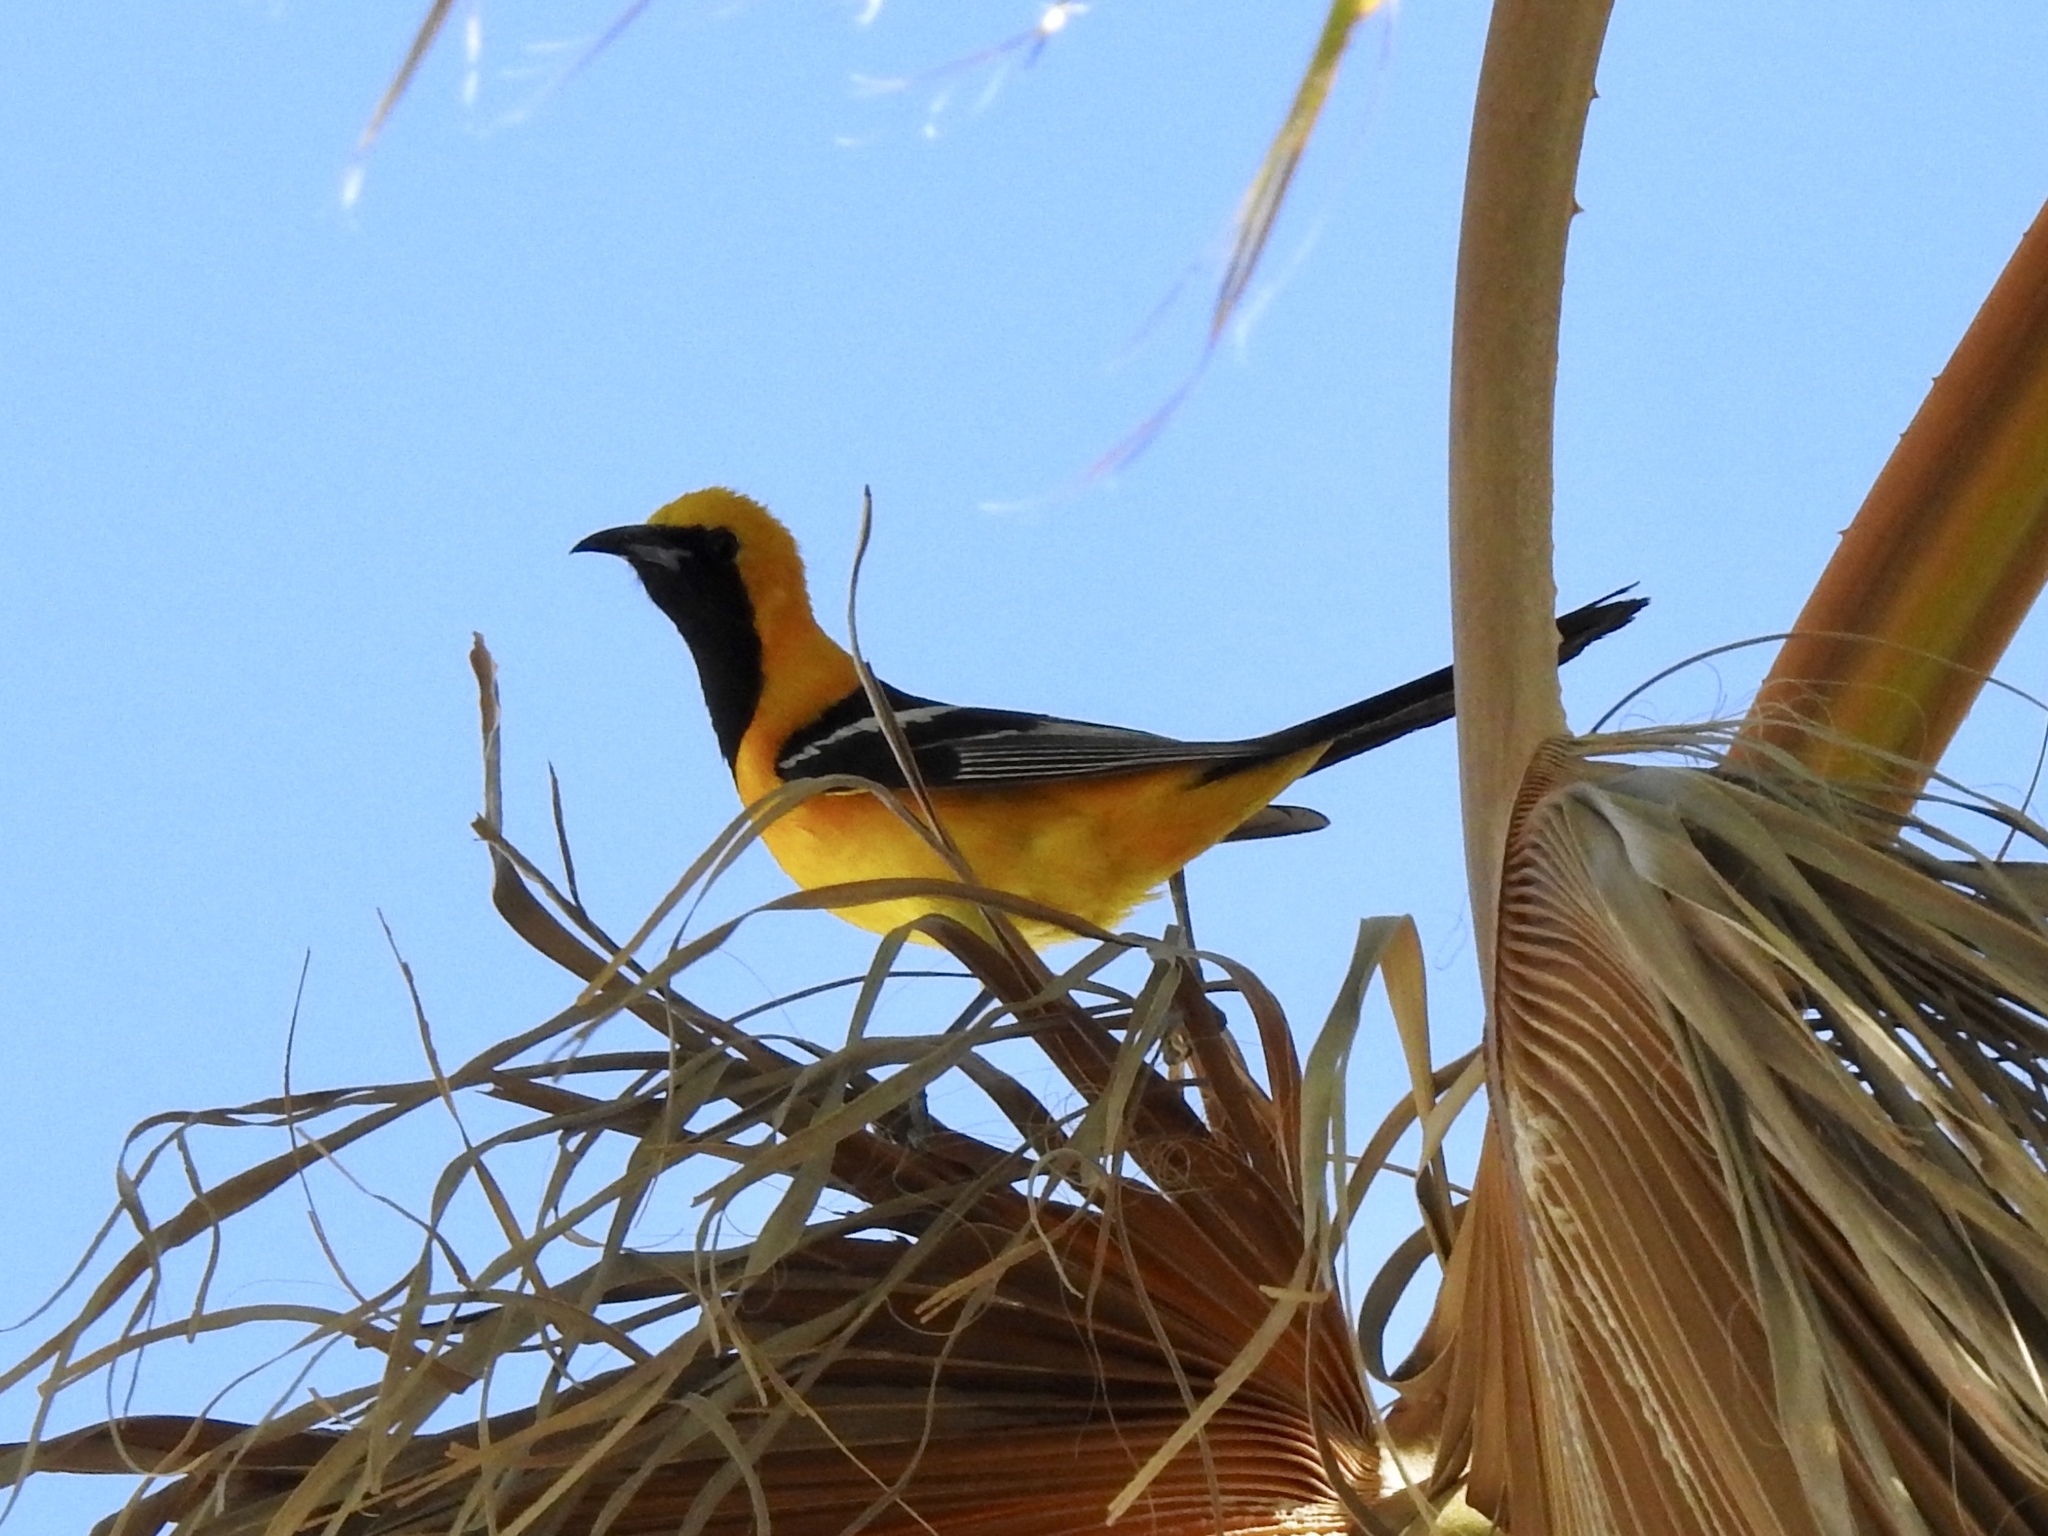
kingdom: Animalia
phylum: Chordata
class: Aves
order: Passeriformes
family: Icteridae
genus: Icterus
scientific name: Icterus cucullatus
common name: Hooded oriole
